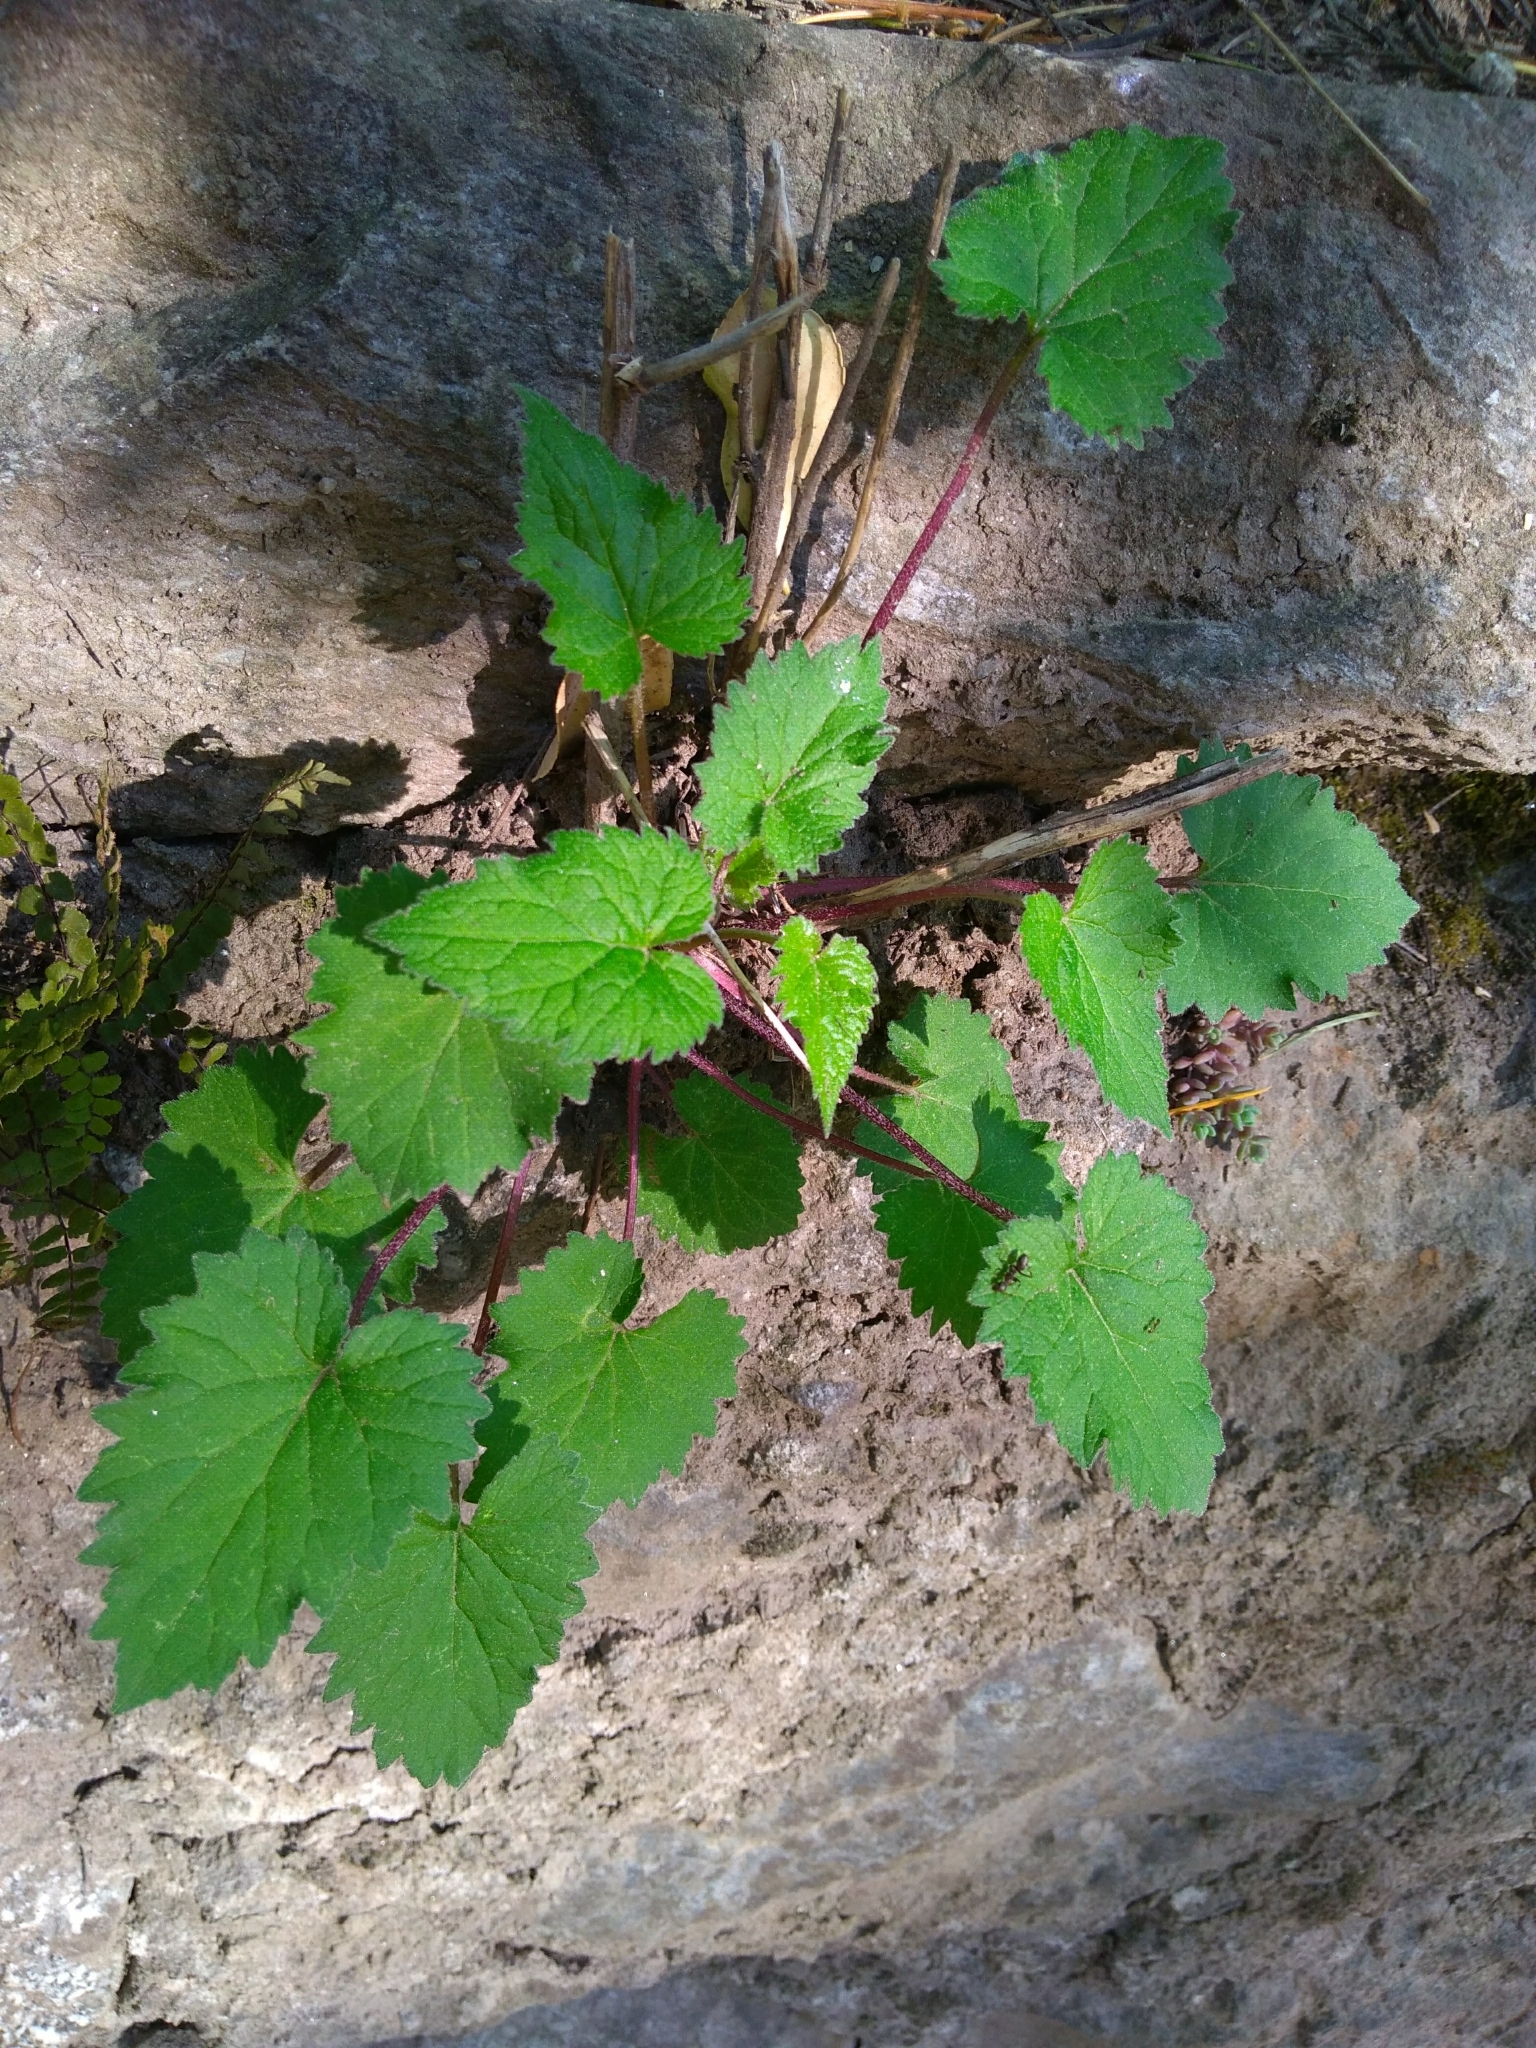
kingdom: Plantae
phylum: Tracheophyta
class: Magnoliopsida
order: Asterales
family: Campanulaceae
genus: Campanula
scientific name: Campanula trachelium
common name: Nettle-leaved bellflower
